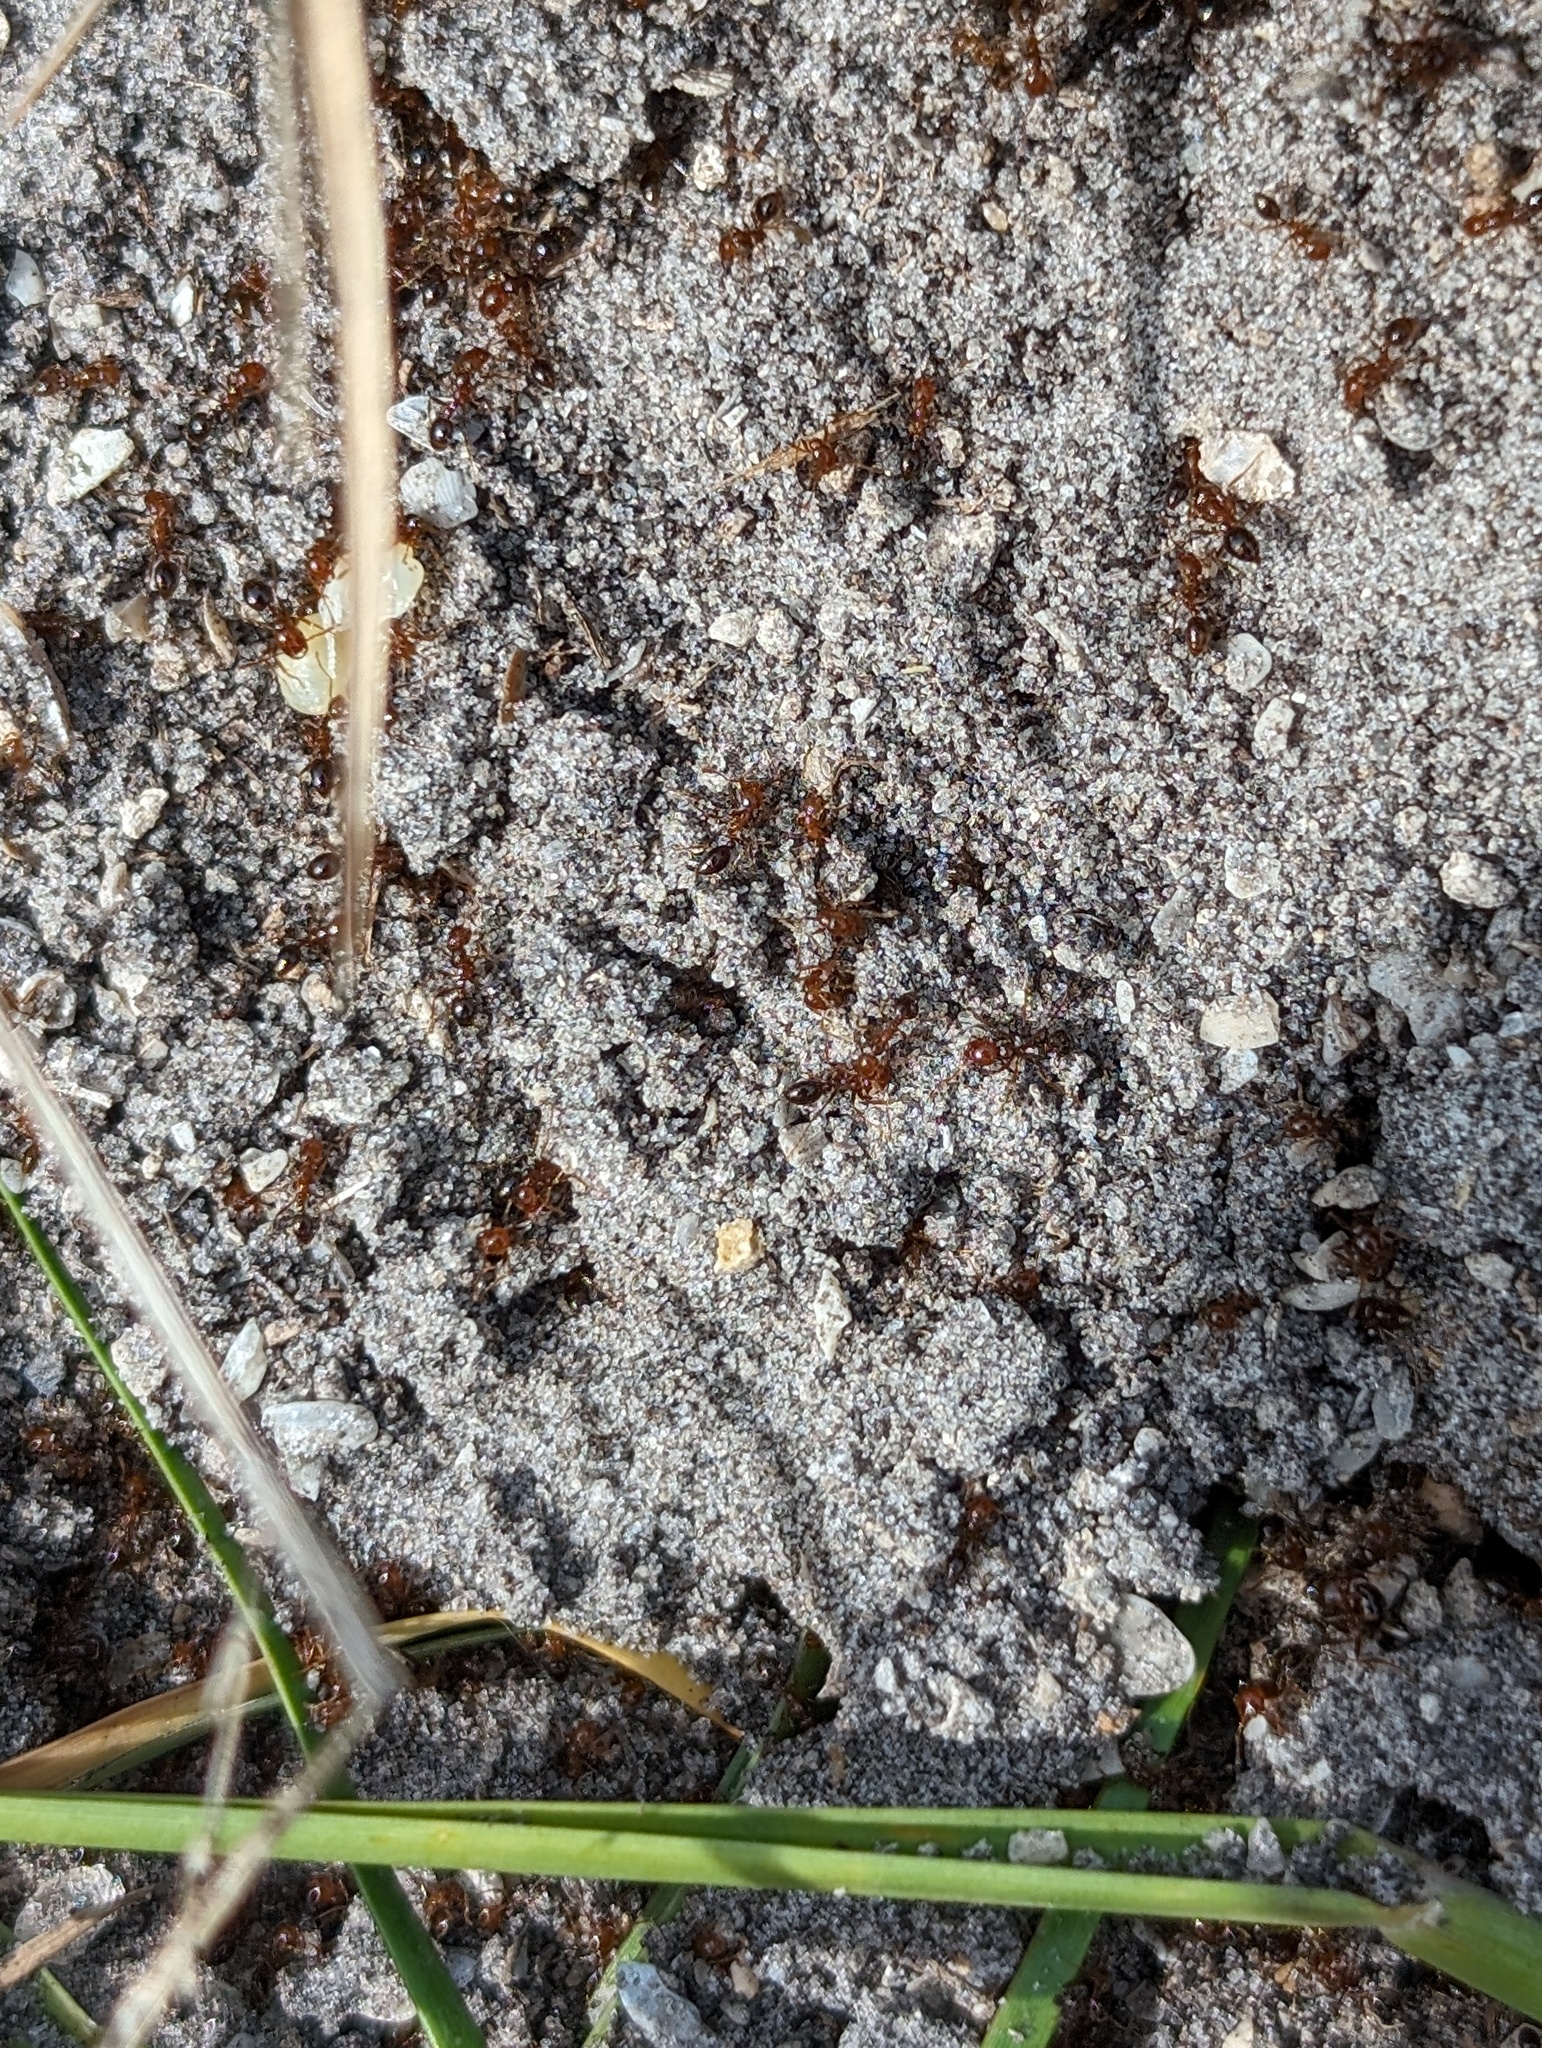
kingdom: Animalia
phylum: Arthropoda
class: Insecta
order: Hymenoptera
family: Formicidae
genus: Solenopsis
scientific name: Solenopsis invicta
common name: Red imported fire ant
